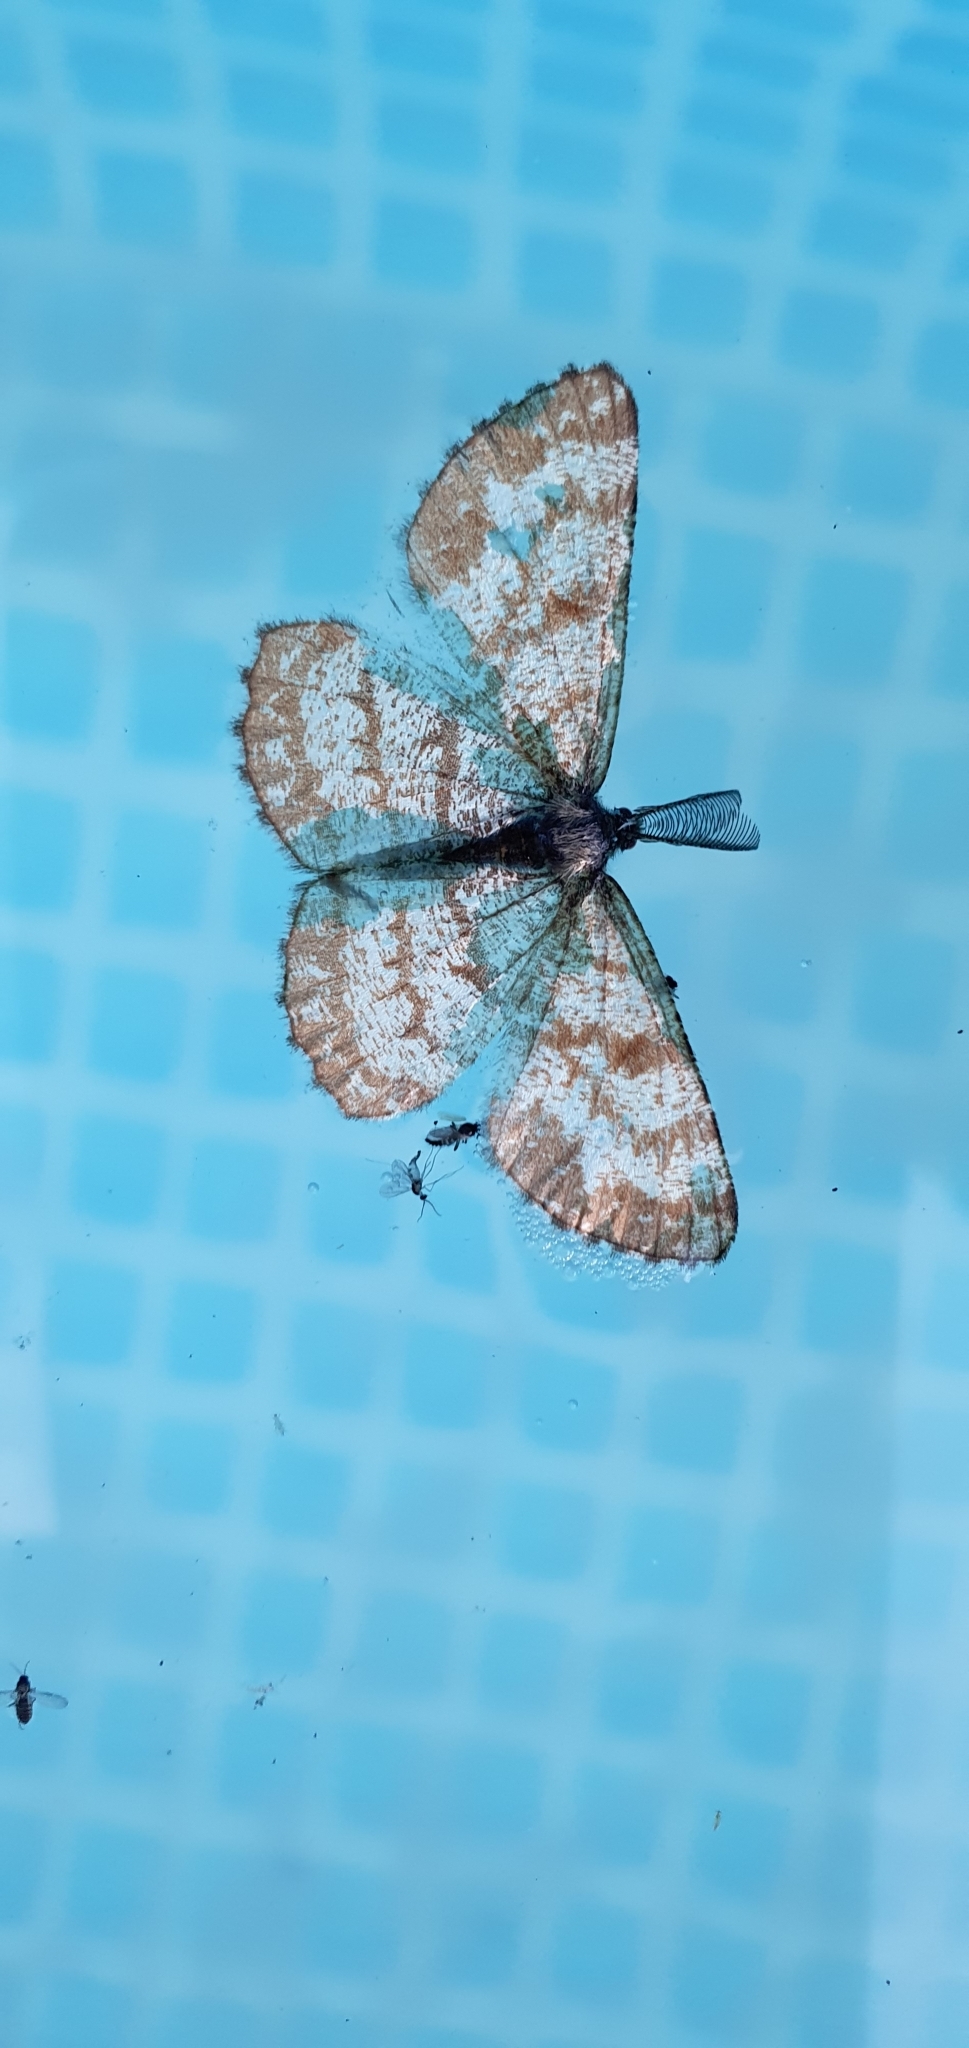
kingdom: Animalia
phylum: Arthropoda
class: Insecta
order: Lepidoptera
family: Geometridae
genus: Ematurga
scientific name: Ematurga atomaria
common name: Common heath
